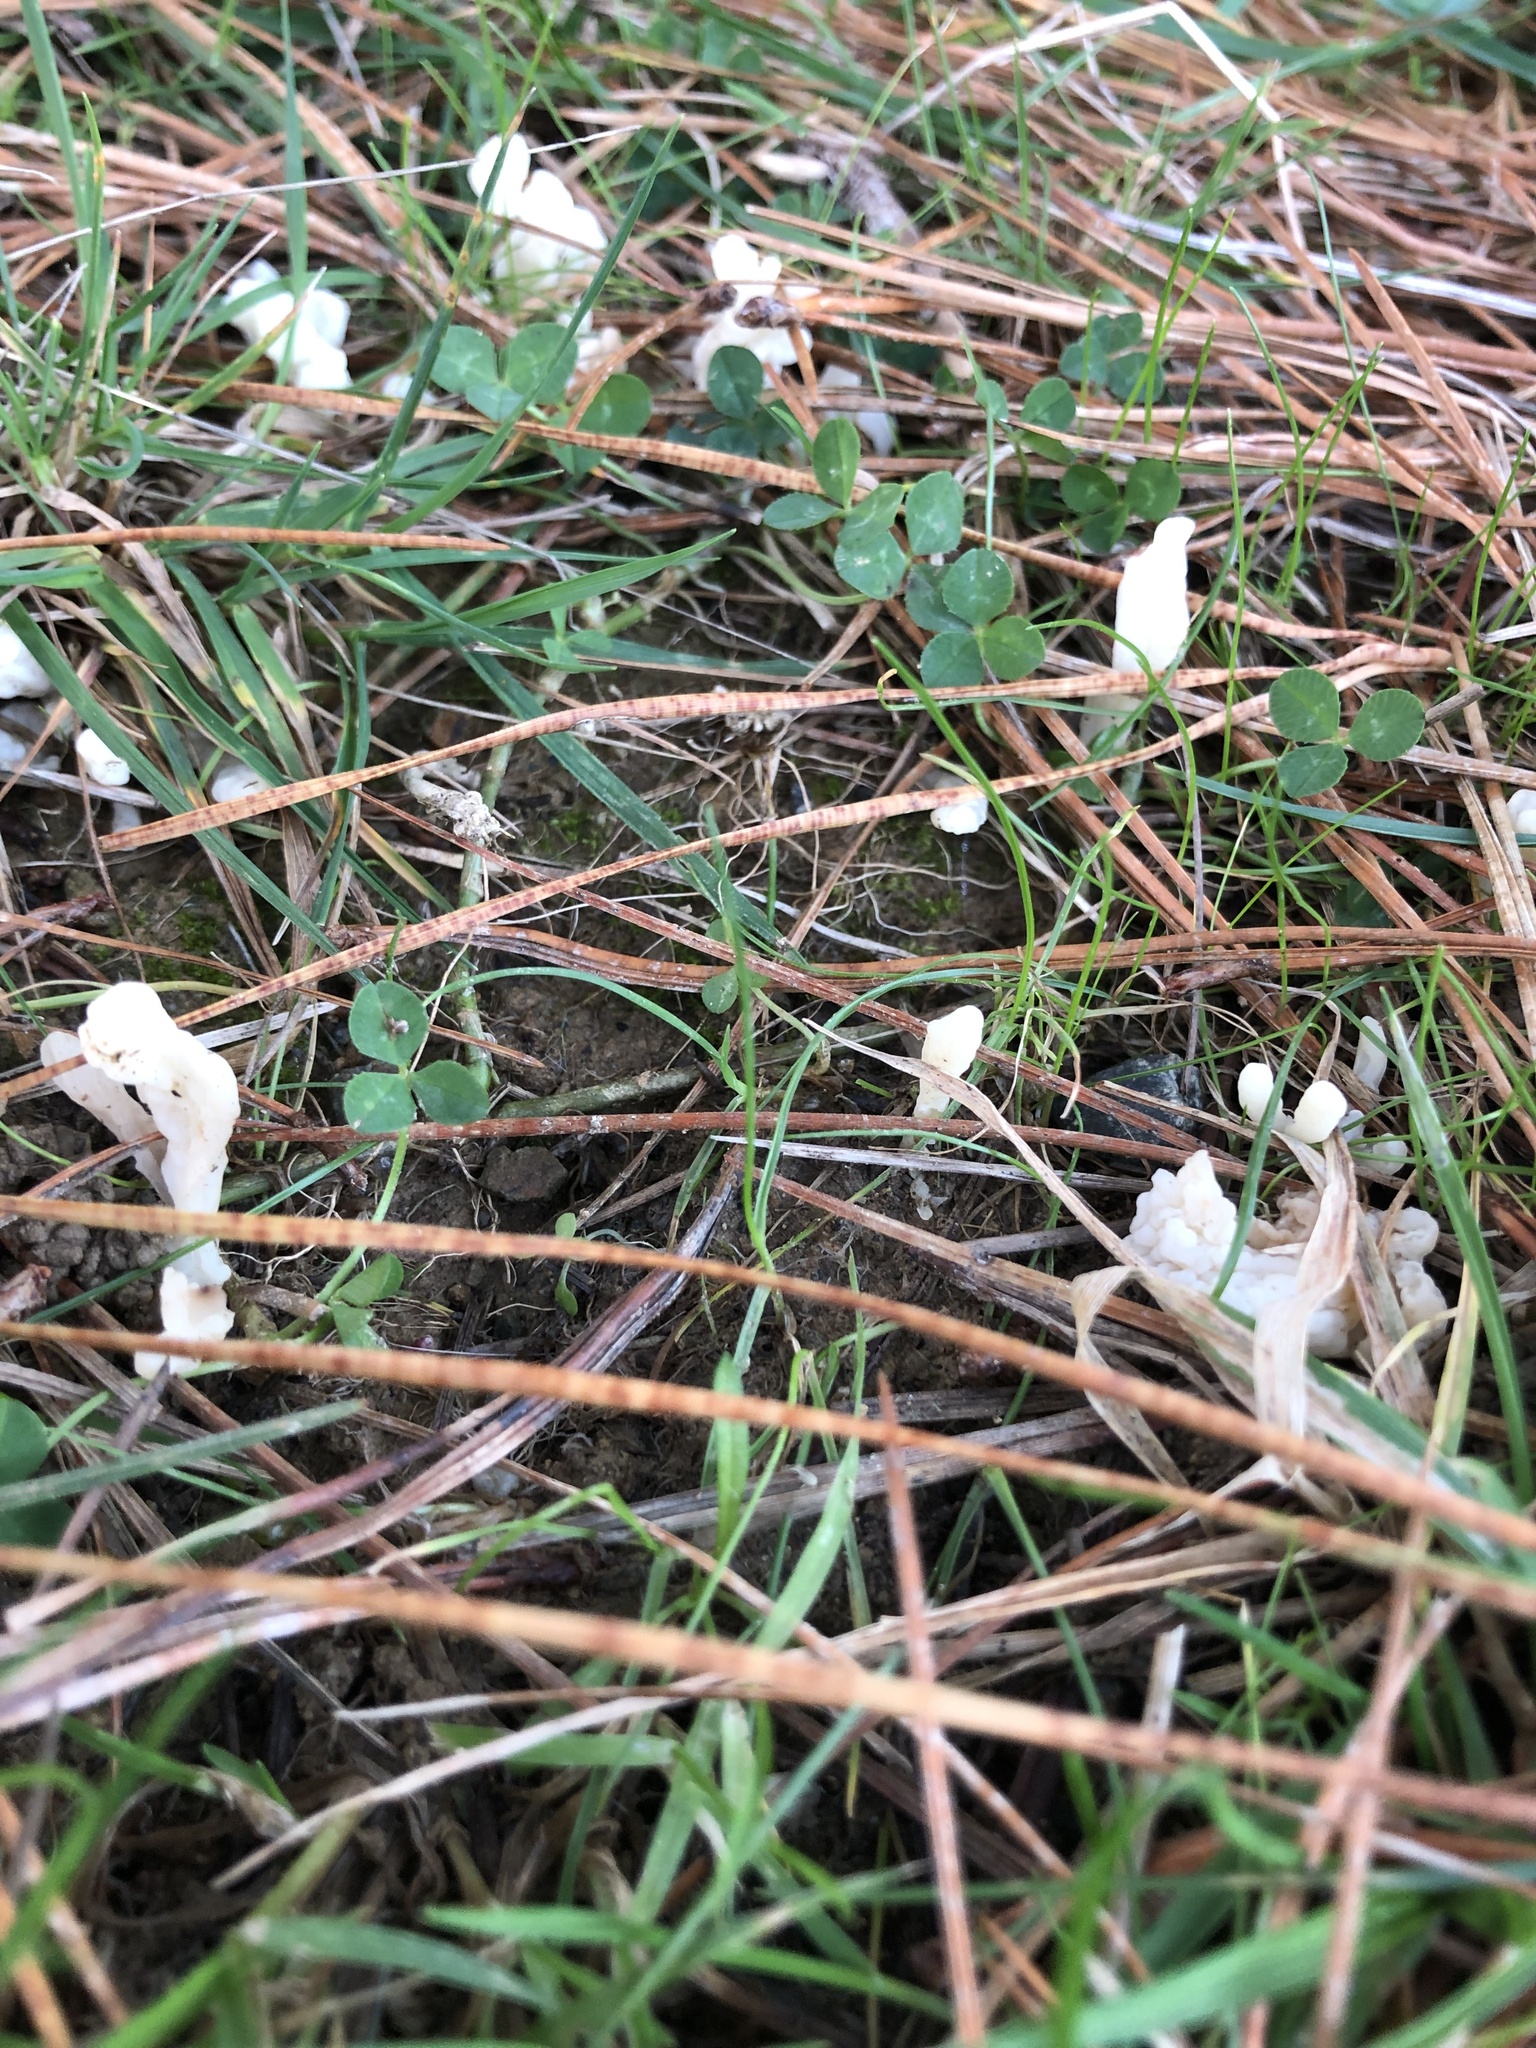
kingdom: Fungi
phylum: Basidiomycota
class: Agaricomycetes
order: Cantharellales
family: Hydnaceae
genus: Clavulina
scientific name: Clavulina rugosa
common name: Wrinkled club
